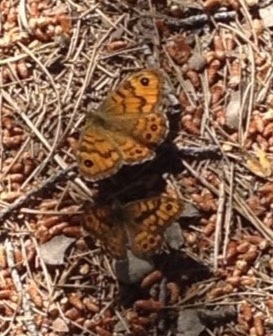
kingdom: Animalia
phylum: Arthropoda
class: Insecta
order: Lepidoptera
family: Nymphalidae
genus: Pararge
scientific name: Pararge Lasiommata megera
